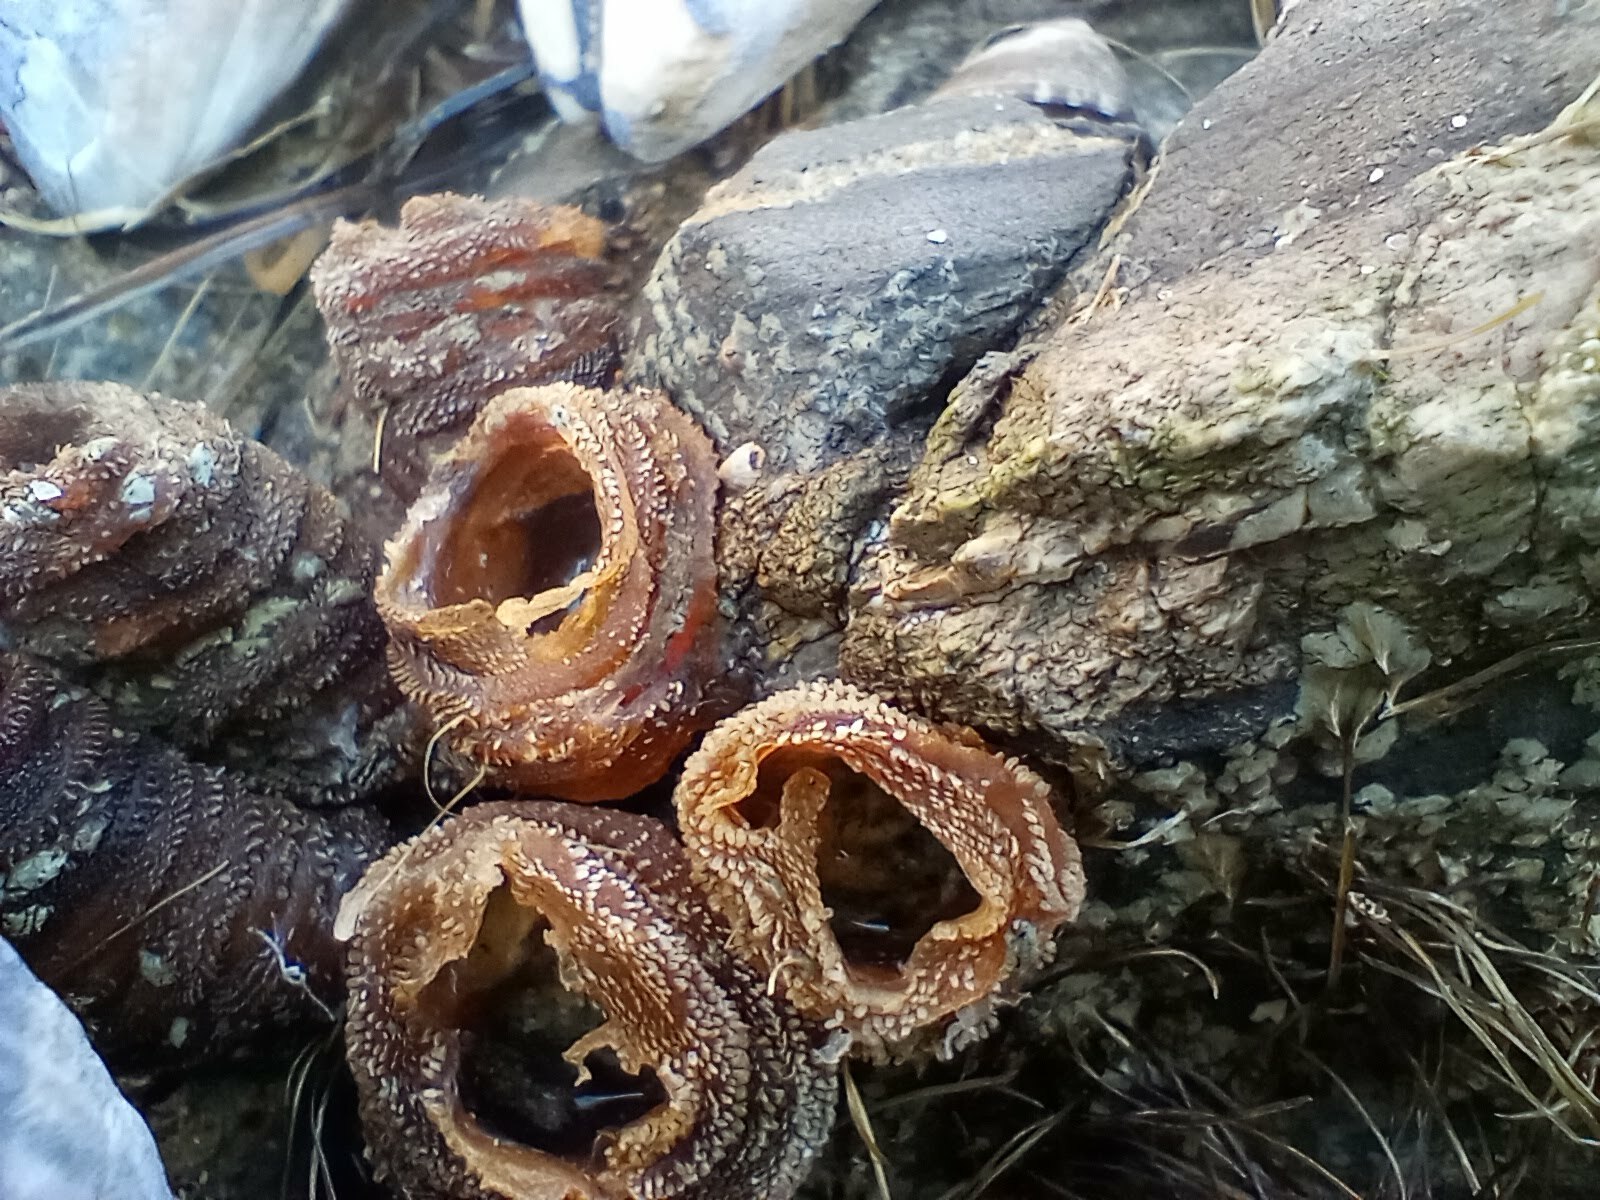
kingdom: Animalia
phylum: Arthropoda
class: Maxillopoda
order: Pedunculata
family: Pollicipedidae
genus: Pollicipes
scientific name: Pollicipes polymerus
